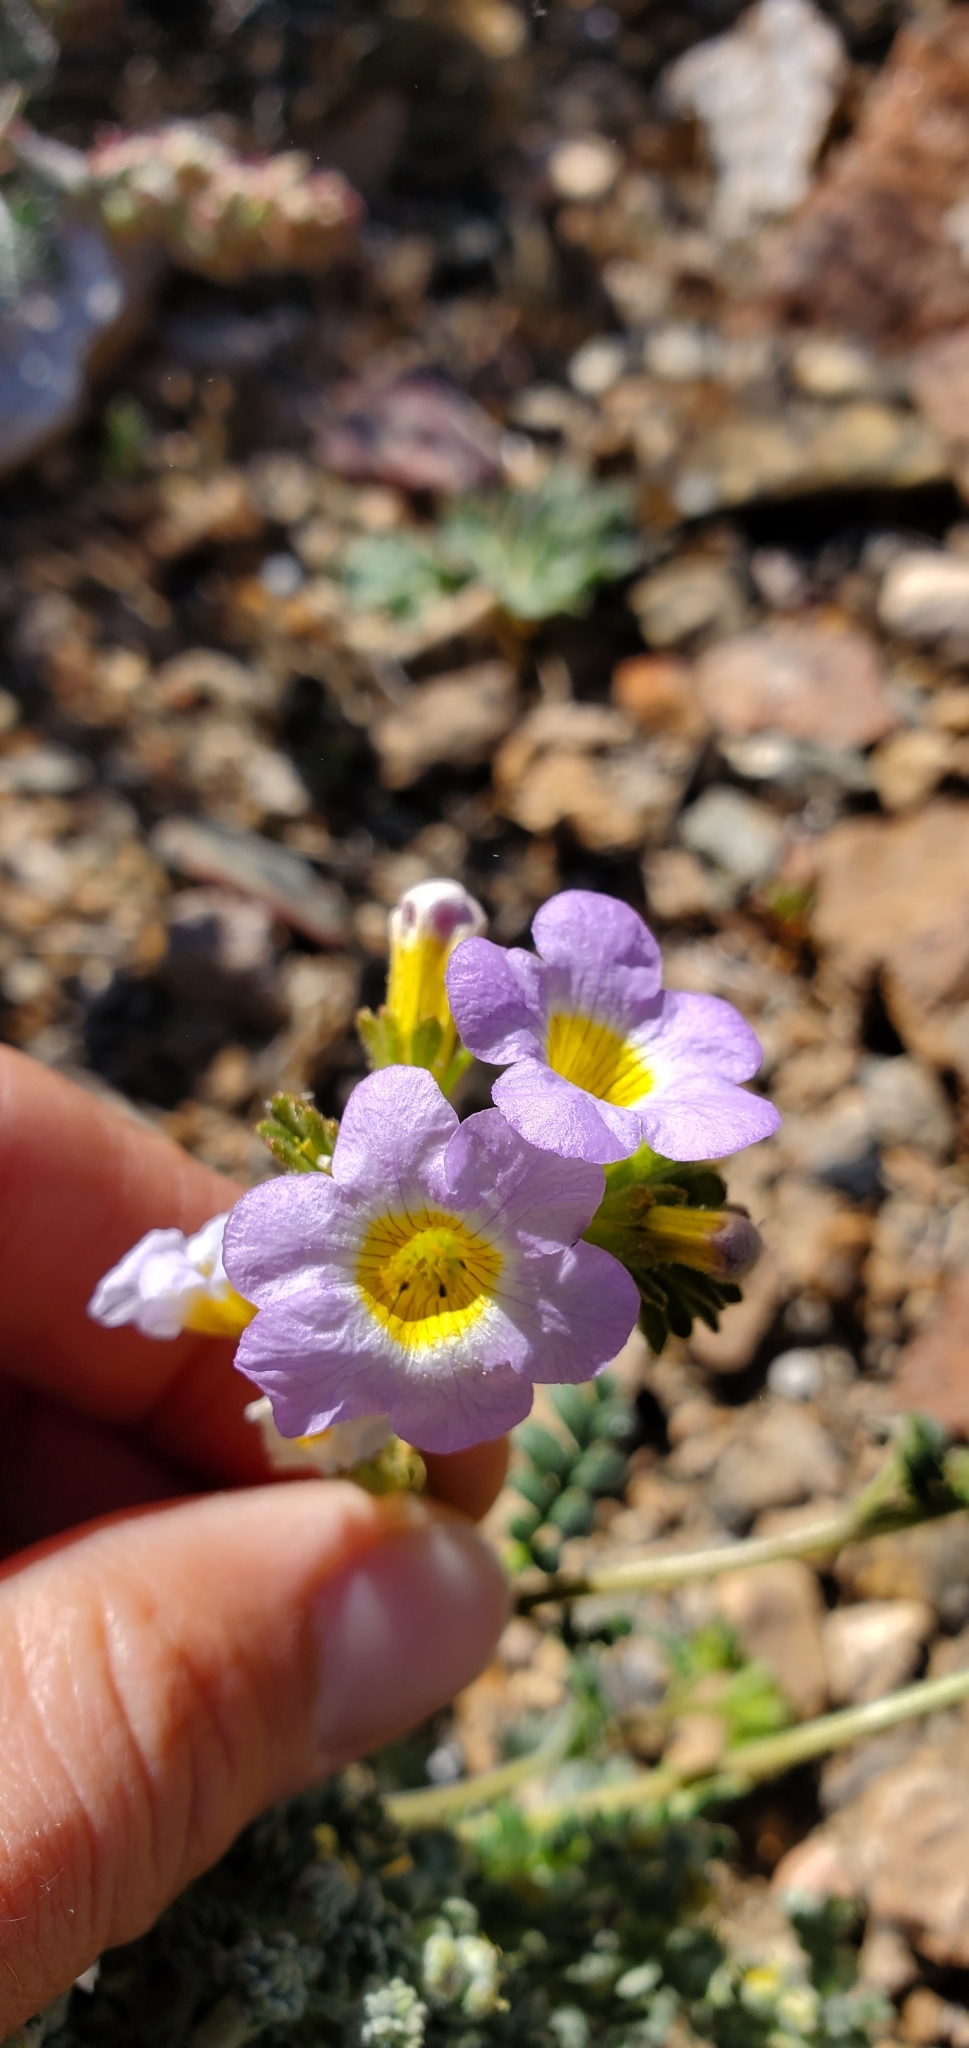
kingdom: Plantae
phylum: Tracheophyta
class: Magnoliopsida
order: Boraginales
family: Hydrophyllaceae
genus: Phacelia
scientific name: Phacelia fremontii
